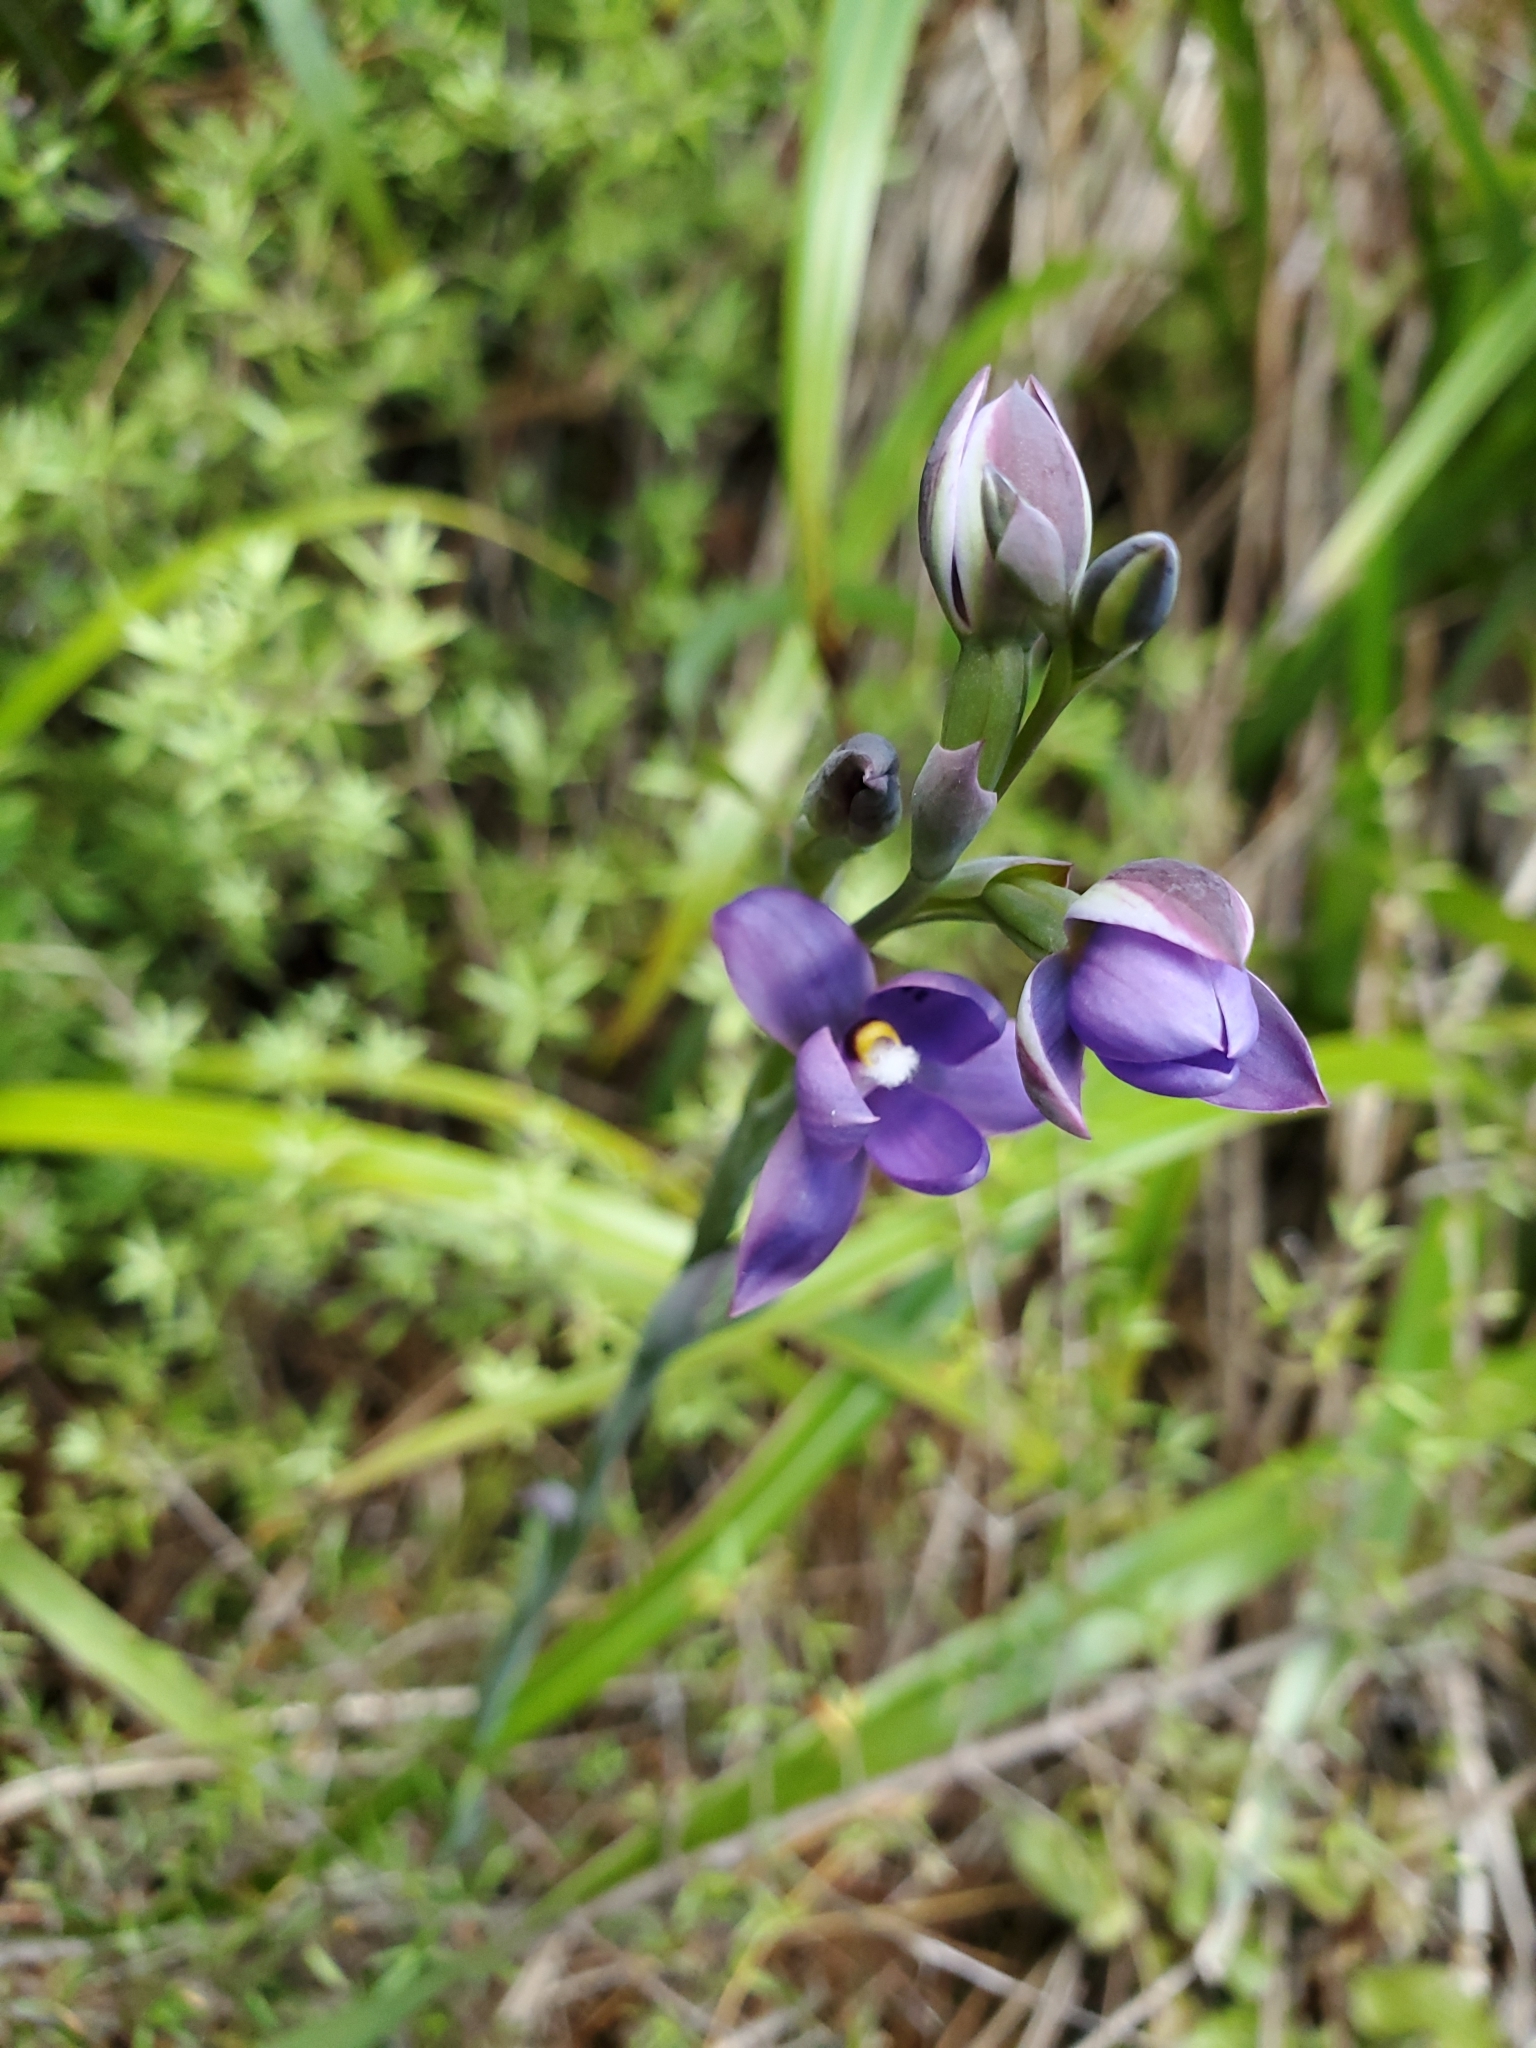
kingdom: Plantae
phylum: Tracheophyta
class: Liliopsida
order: Asparagales
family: Orchidaceae
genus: Thelymitra
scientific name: Thelymitra nervosa
